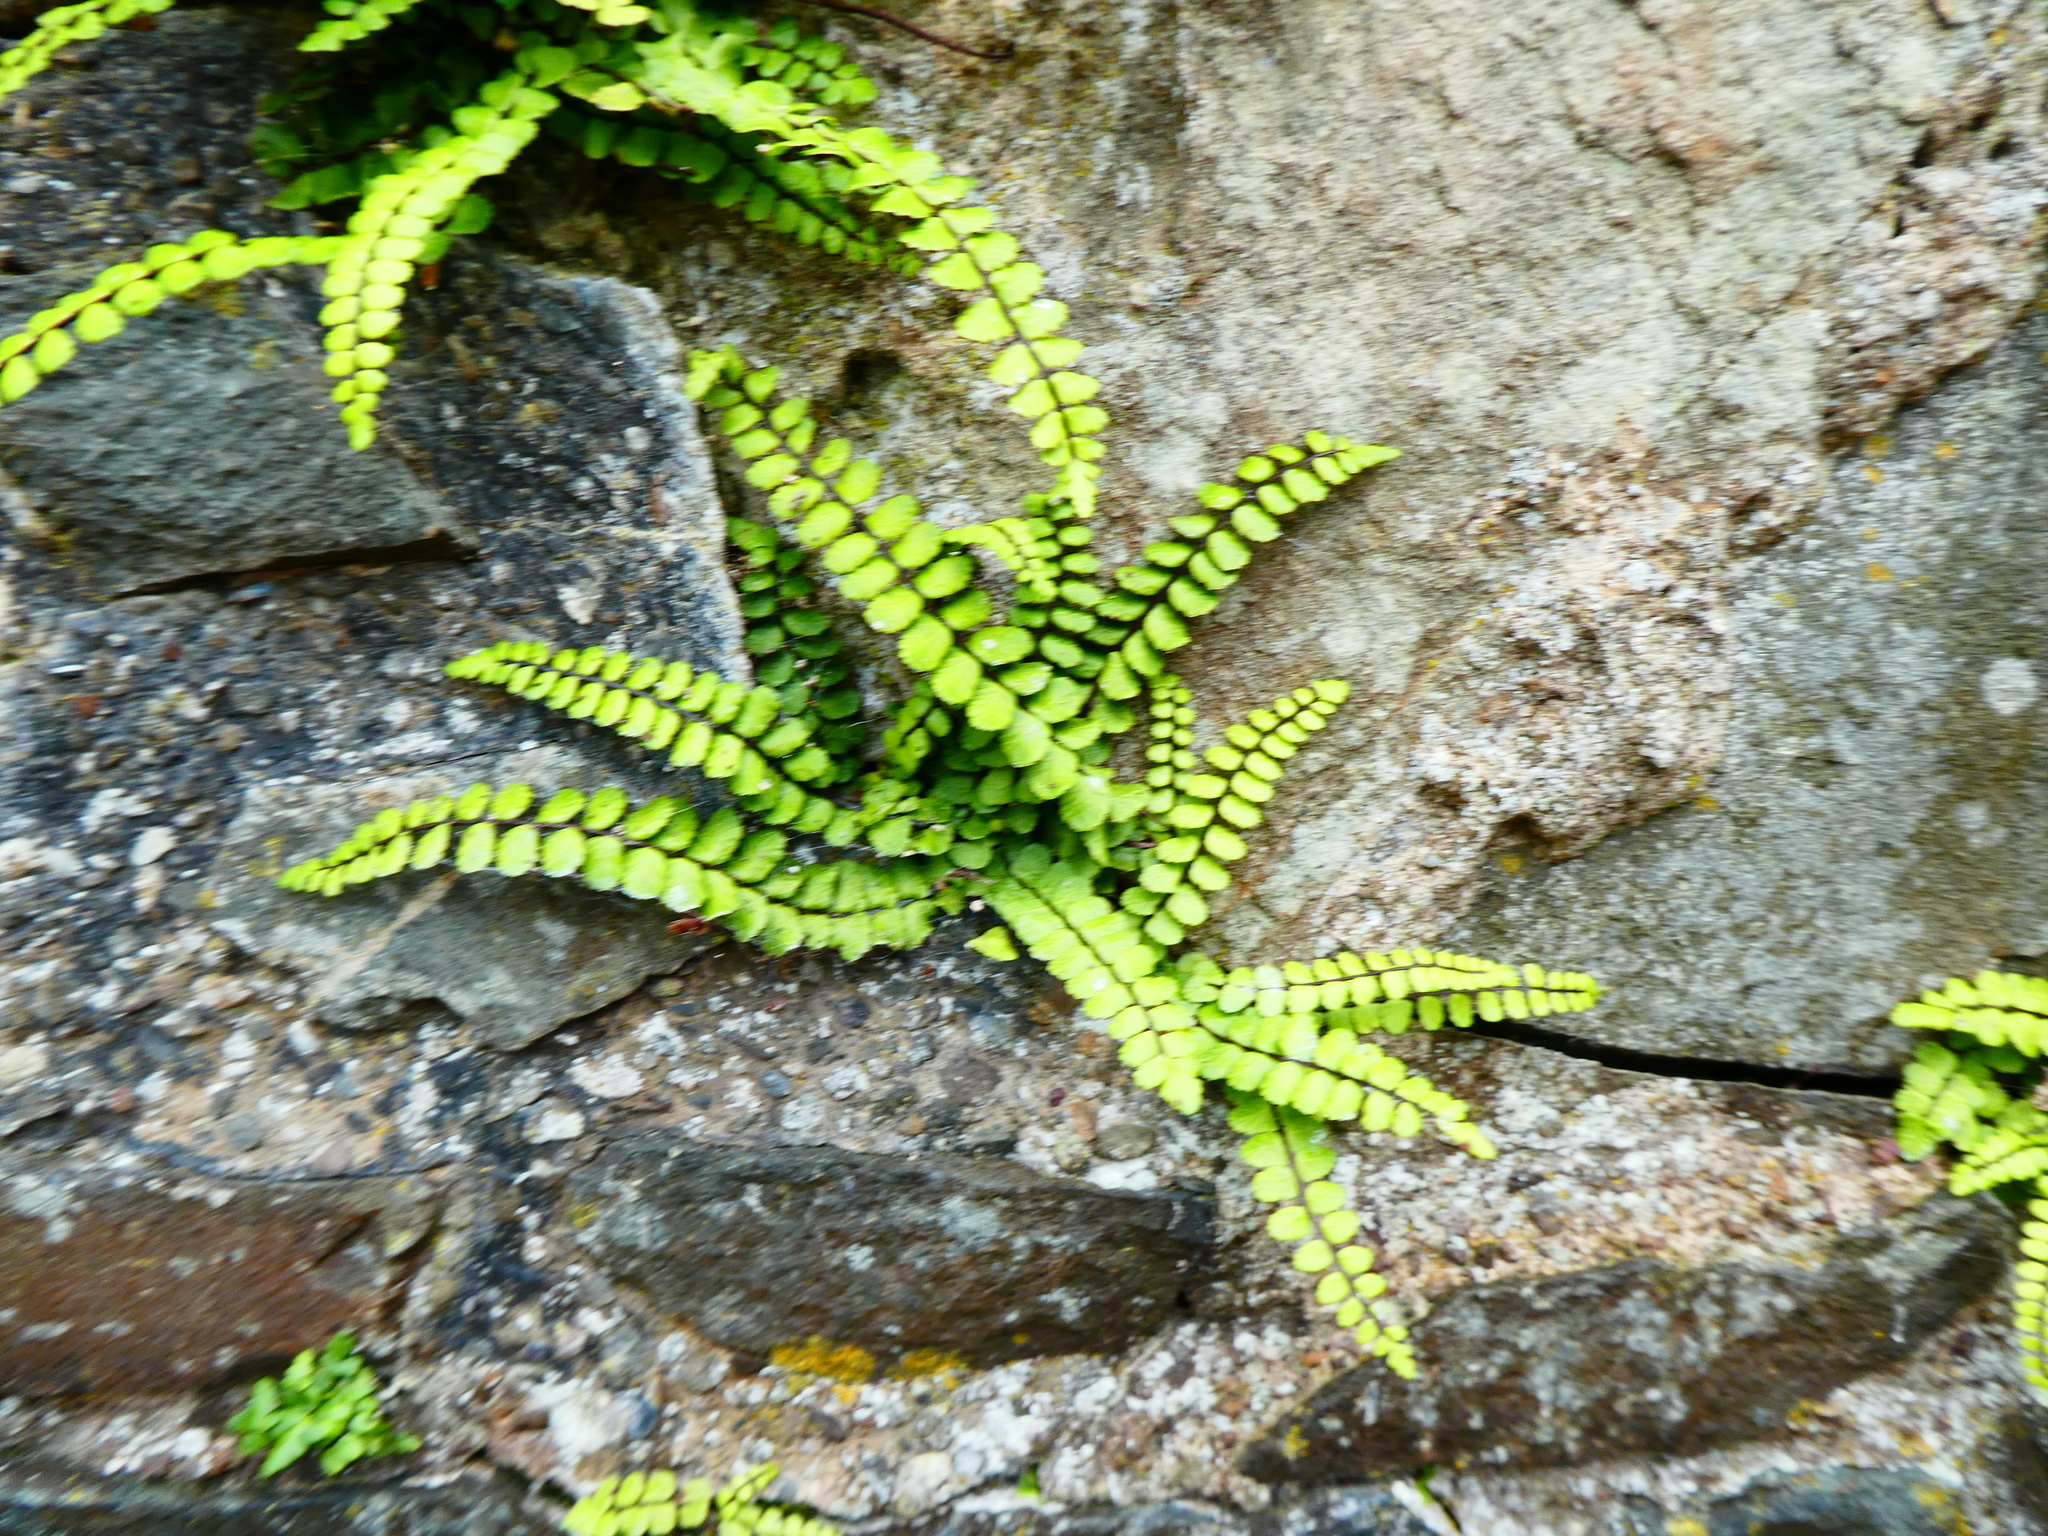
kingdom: Plantae
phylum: Tracheophyta
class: Polypodiopsida
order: Polypodiales
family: Aspleniaceae
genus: Asplenium
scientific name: Asplenium trichomanes
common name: Maidenhair spleenwort
